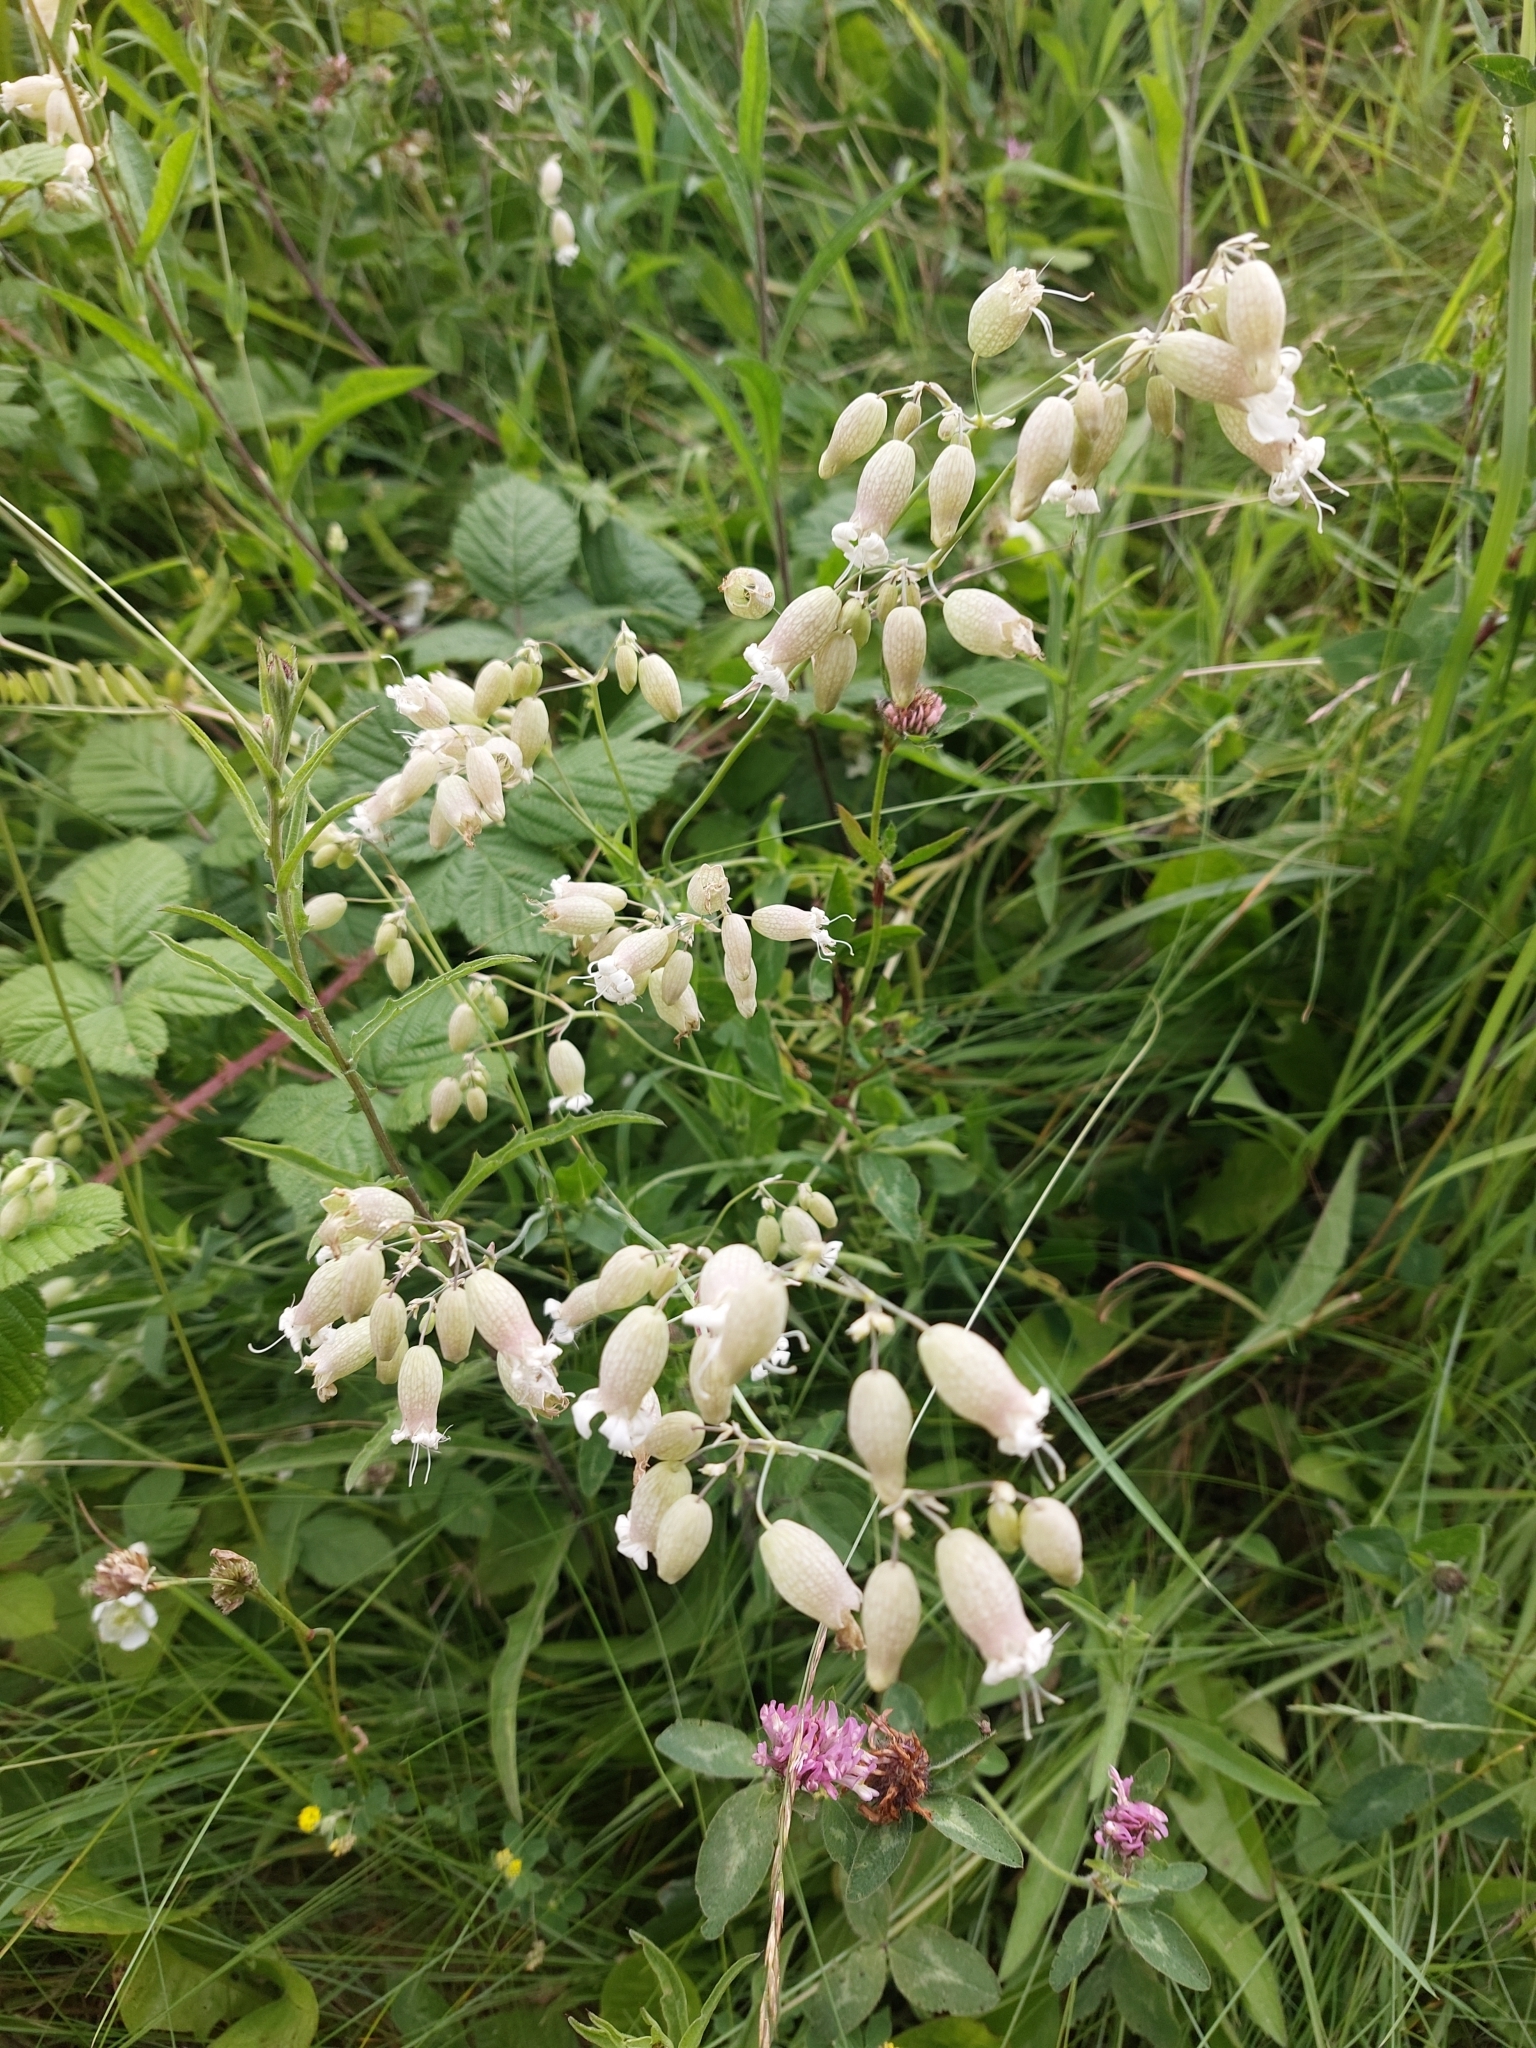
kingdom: Plantae
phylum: Tracheophyta
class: Magnoliopsida
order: Caryophyllales
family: Caryophyllaceae
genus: Silene
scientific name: Silene vulgaris
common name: Bladder campion
